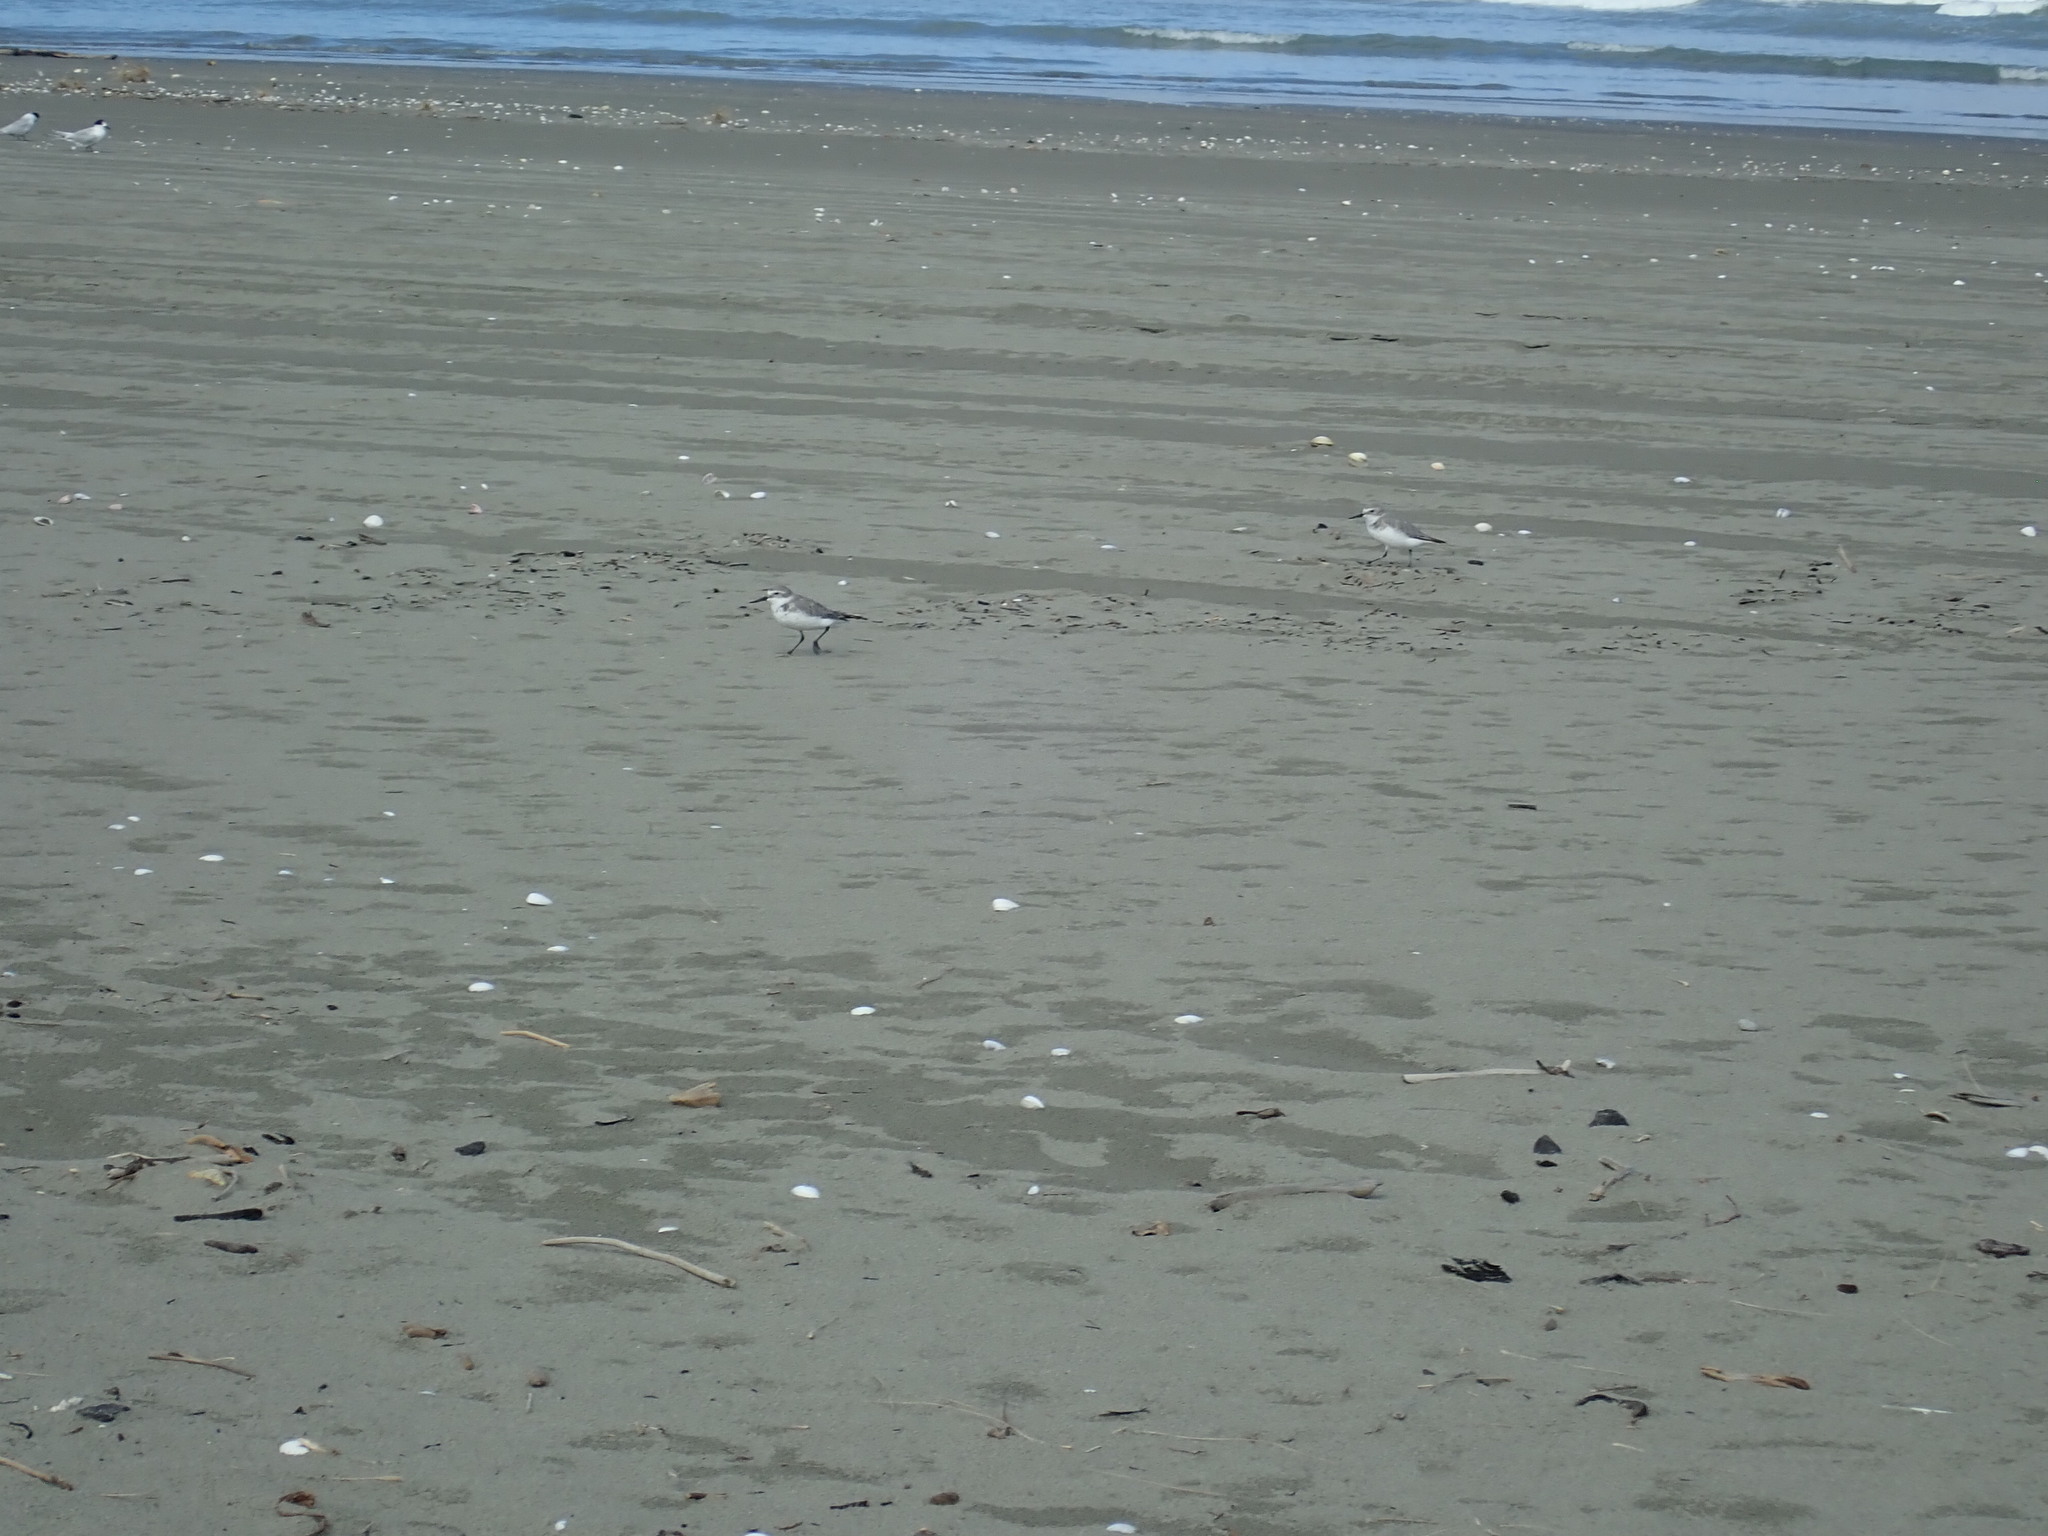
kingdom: Animalia
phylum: Chordata
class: Aves
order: Charadriiformes
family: Charadriidae
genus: Anarhynchus
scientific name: Anarhynchus frontalis
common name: Wrybill
